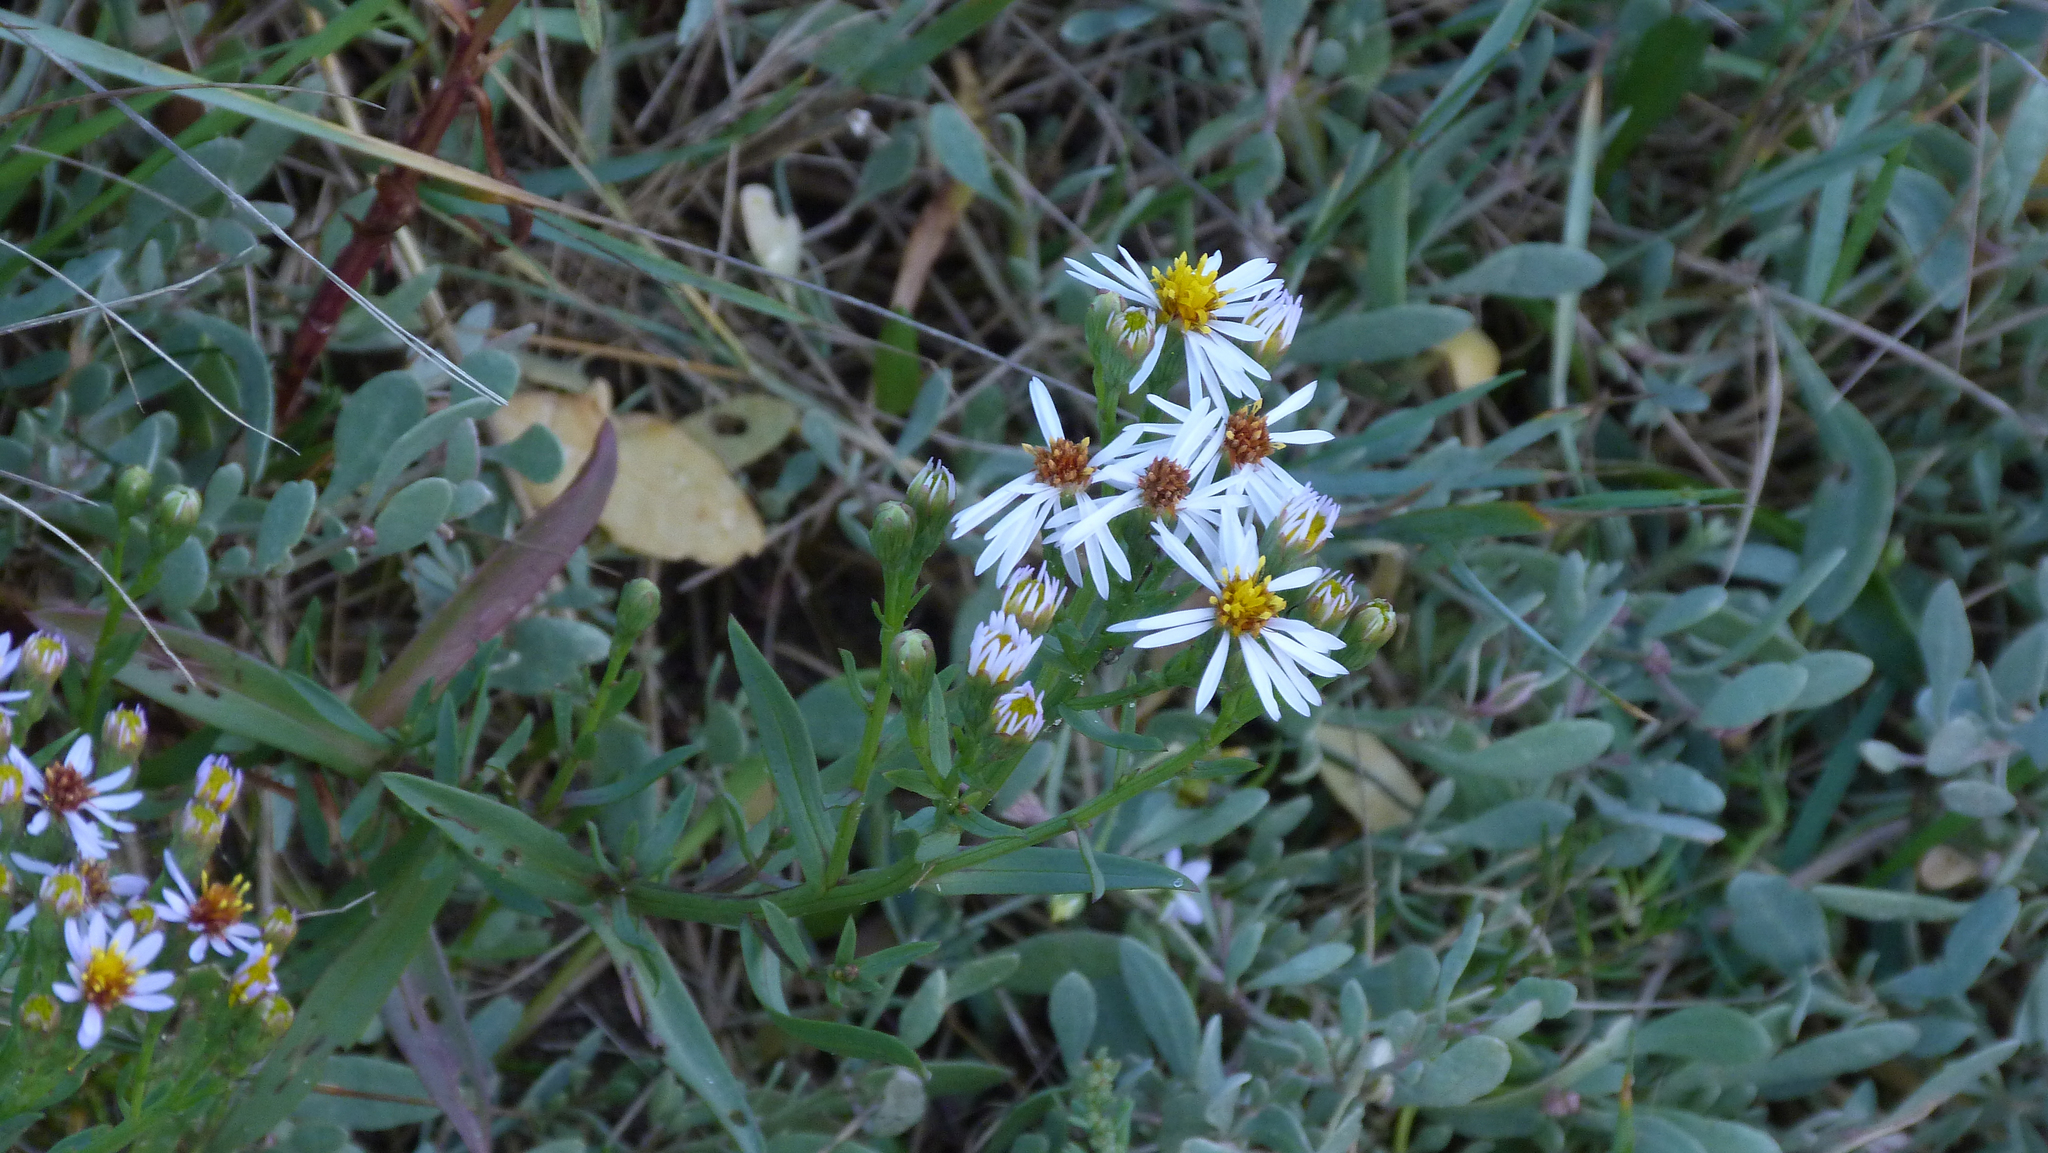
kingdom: Plantae
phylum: Tracheophyta
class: Magnoliopsida
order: Asterales
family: Asteraceae
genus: Tripolium
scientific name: Tripolium pannonicum
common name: Sea aster
